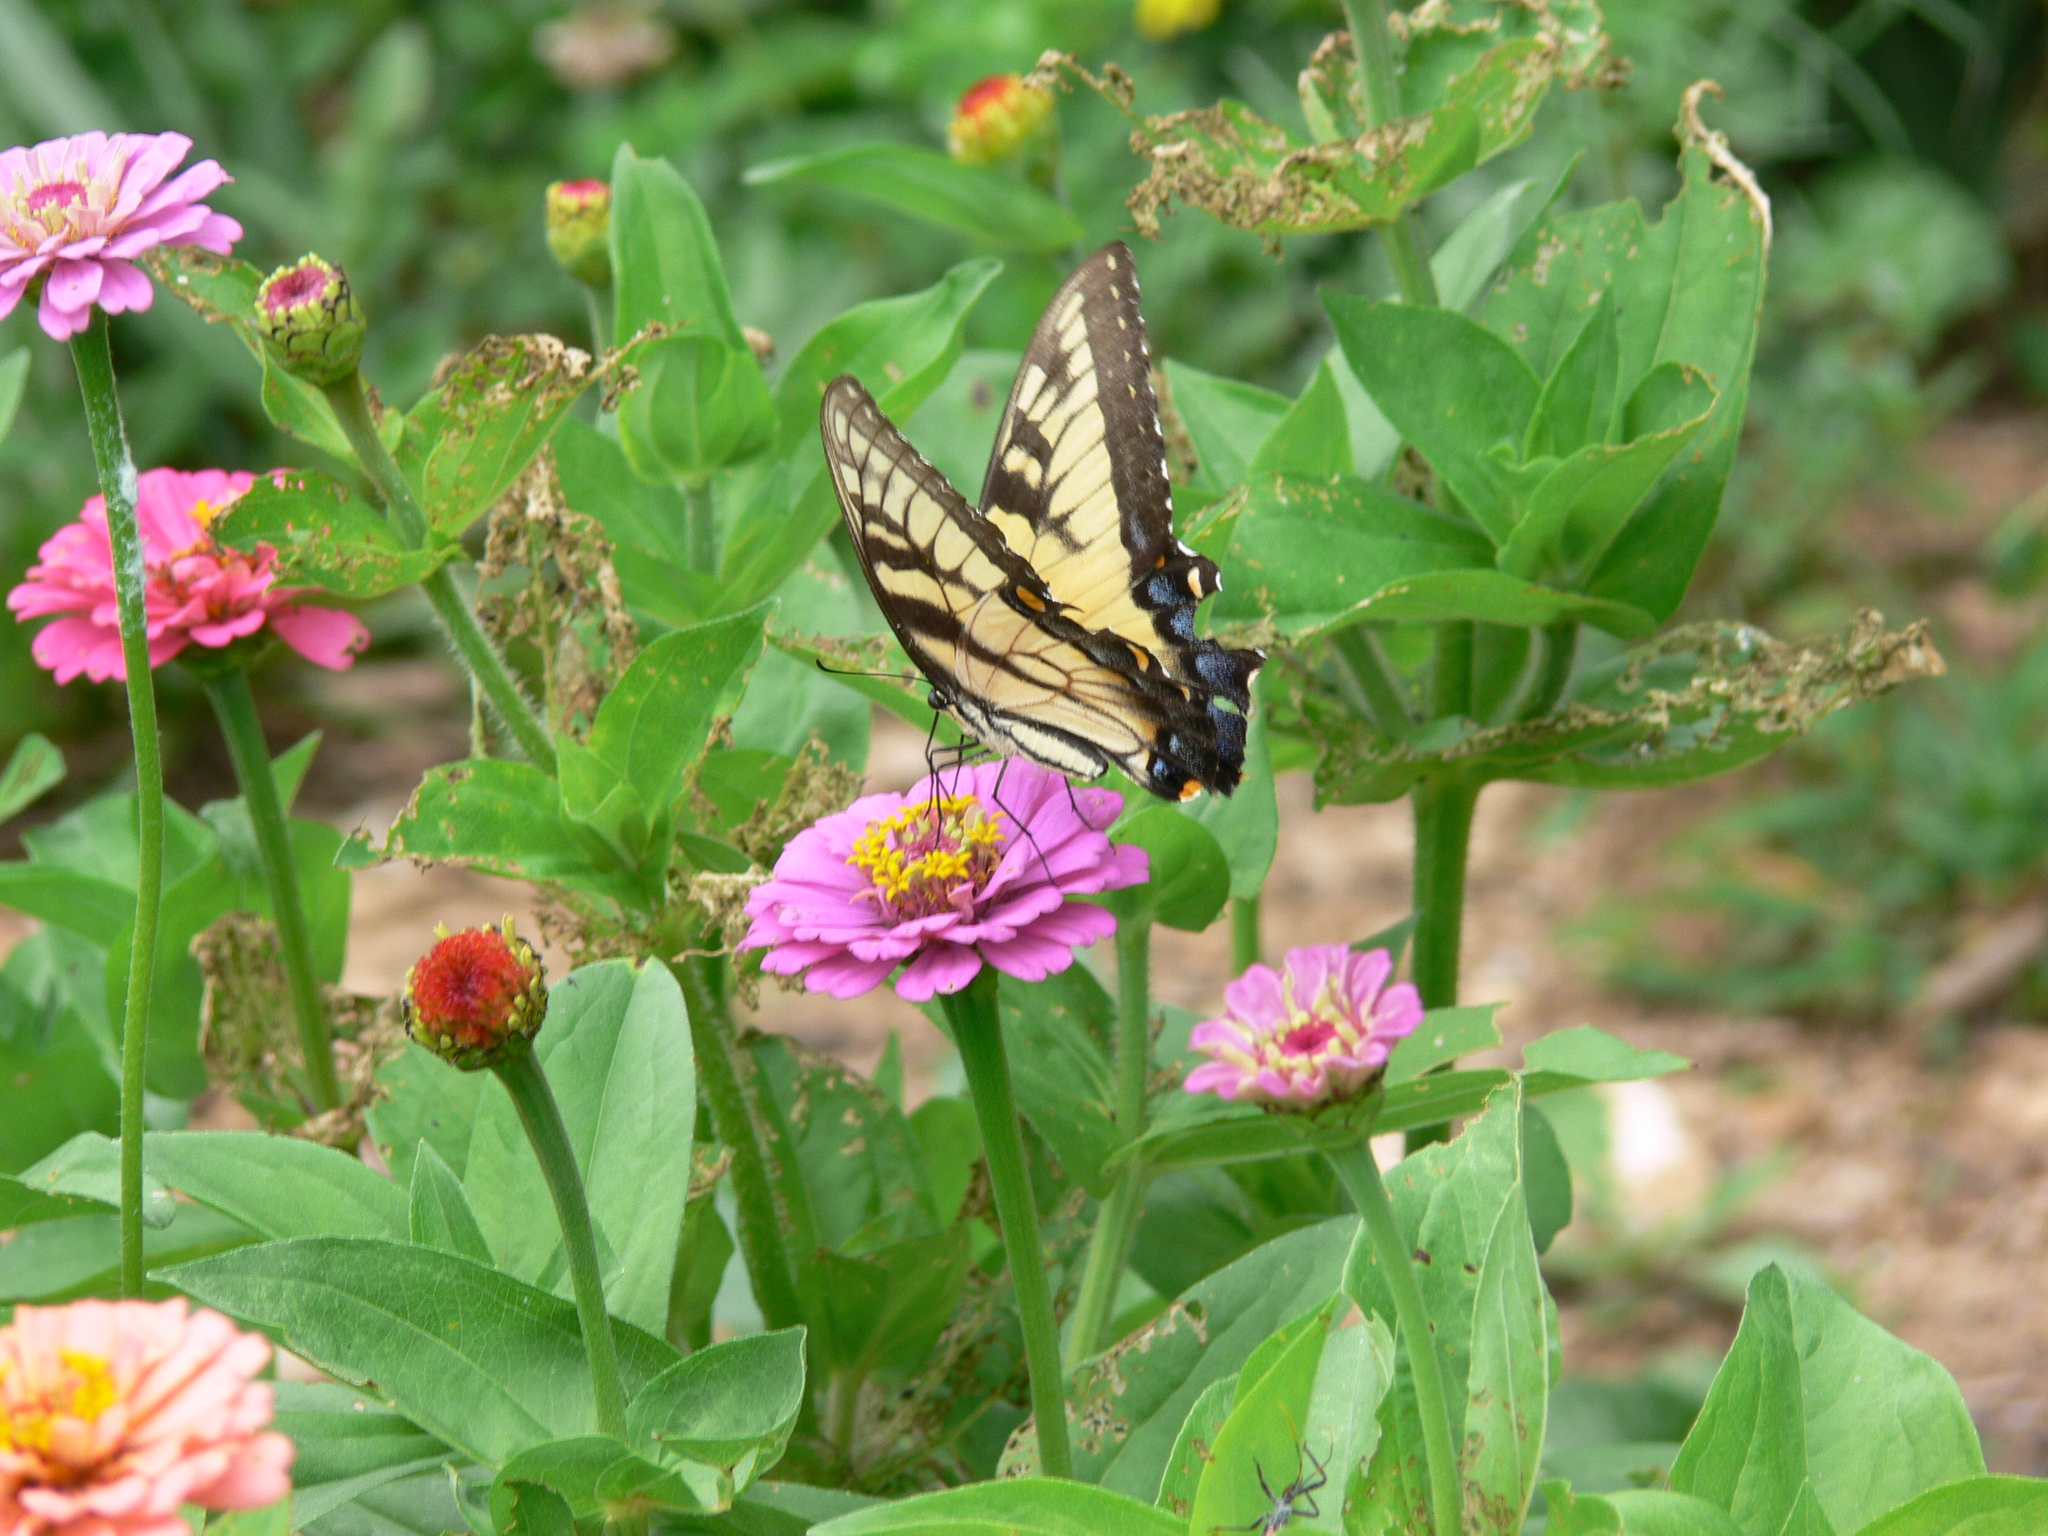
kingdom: Animalia
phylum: Arthropoda
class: Insecta
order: Lepidoptera
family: Papilionidae
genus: Papilio
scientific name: Papilio glaucus
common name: Tiger swallowtail
